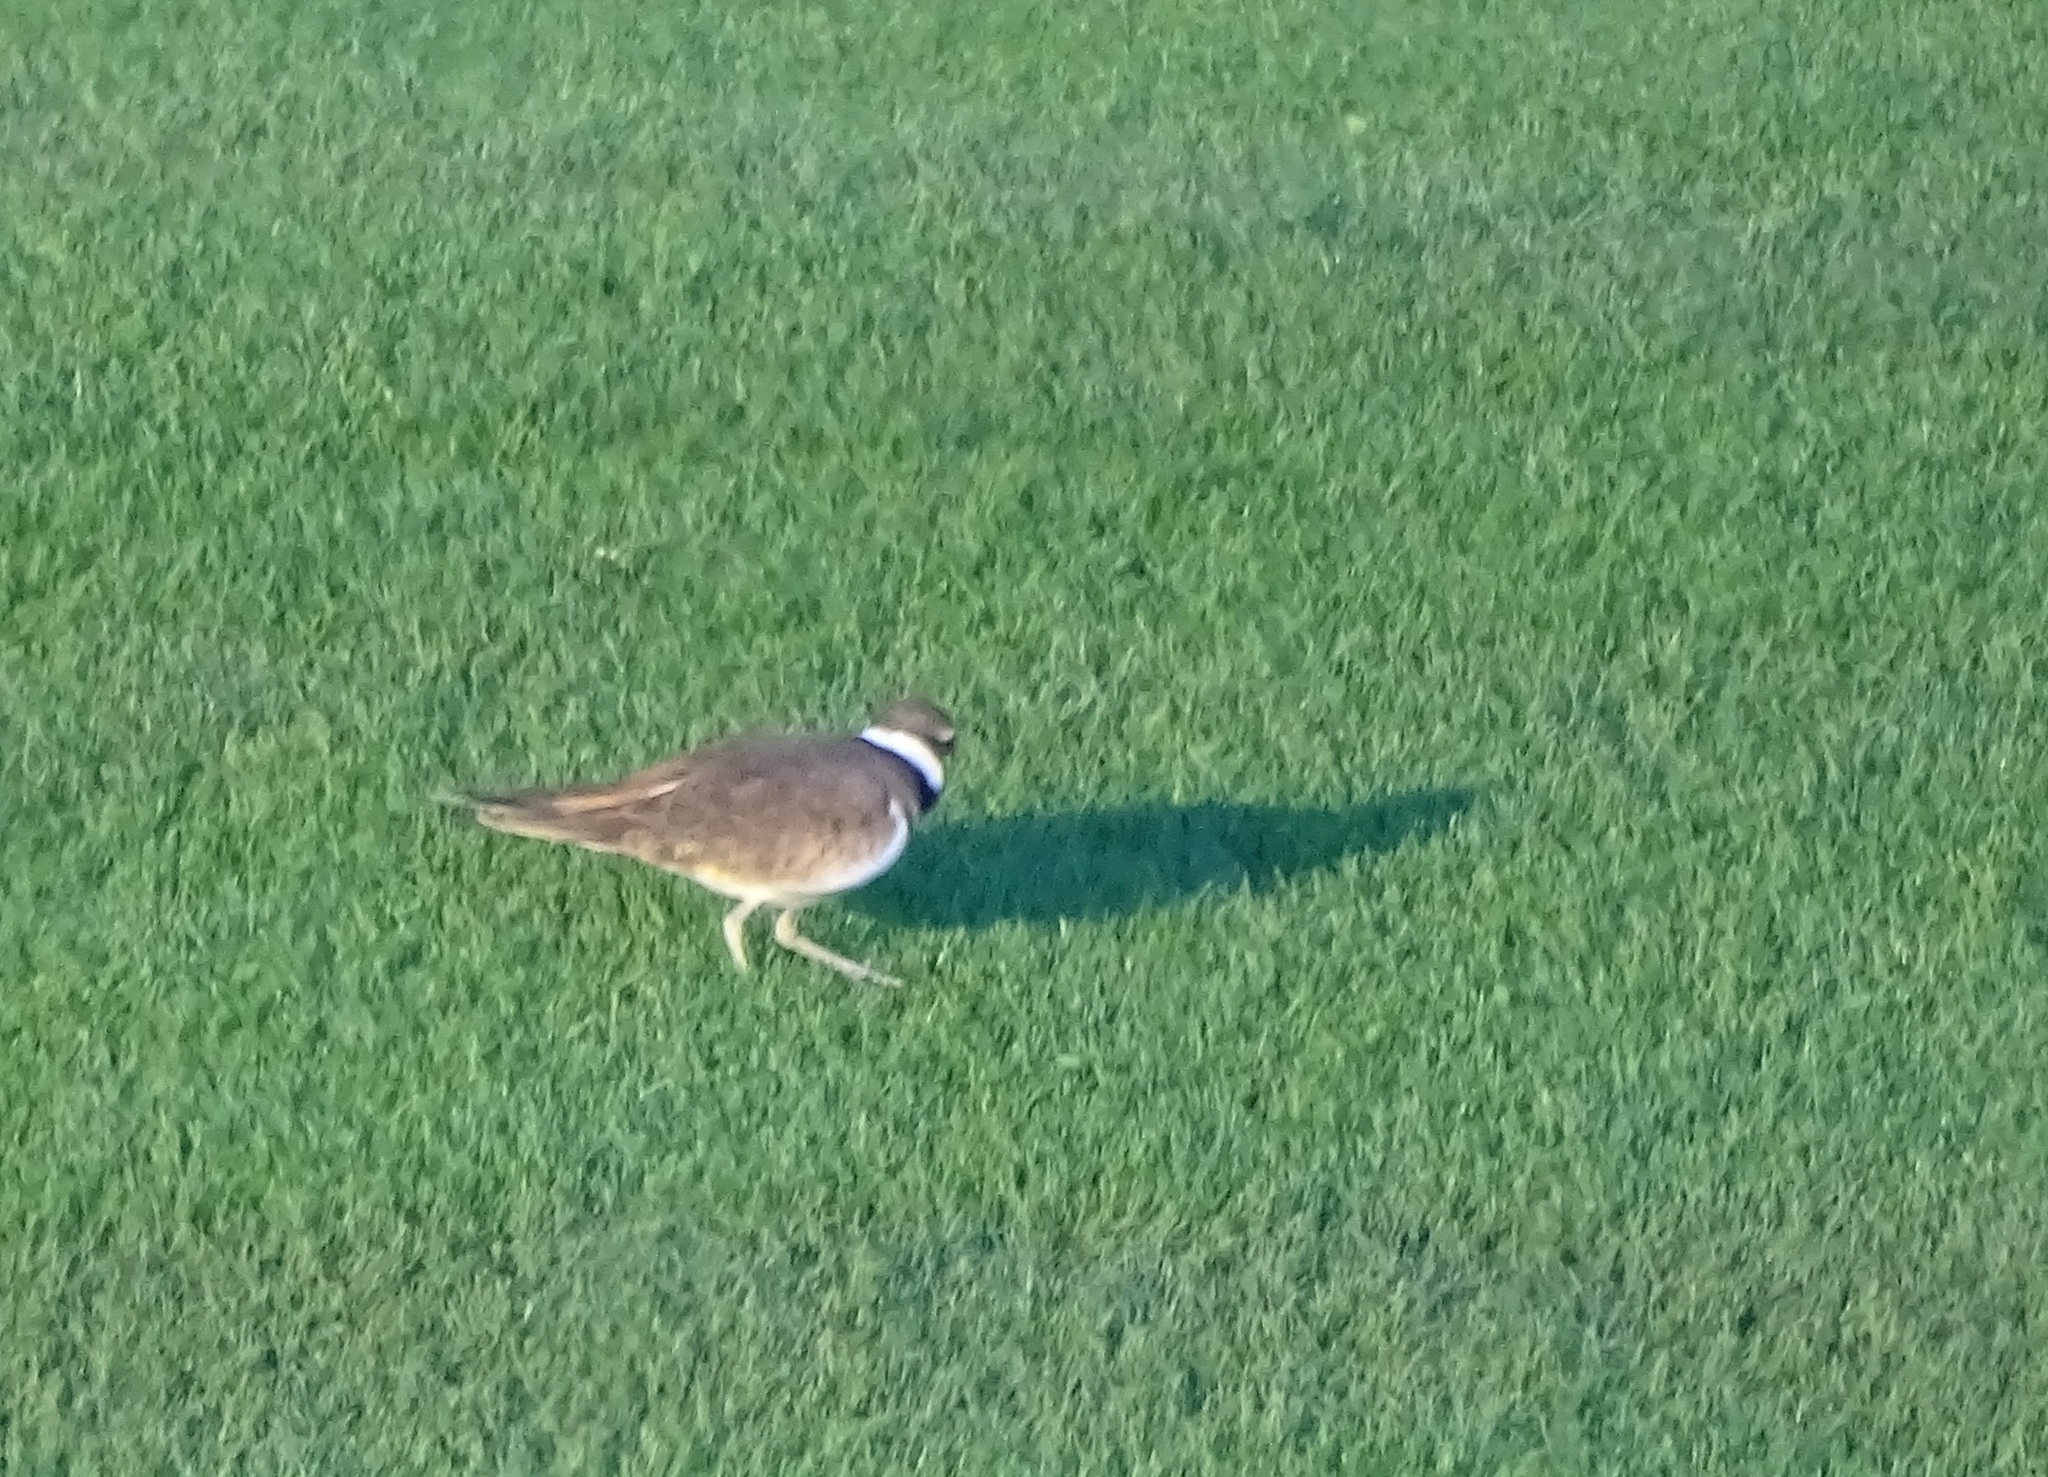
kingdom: Animalia
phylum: Chordata
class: Aves
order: Charadriiformes
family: Charadriidae
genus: Charadrius
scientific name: Charadrius vociferus
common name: Killdeer
